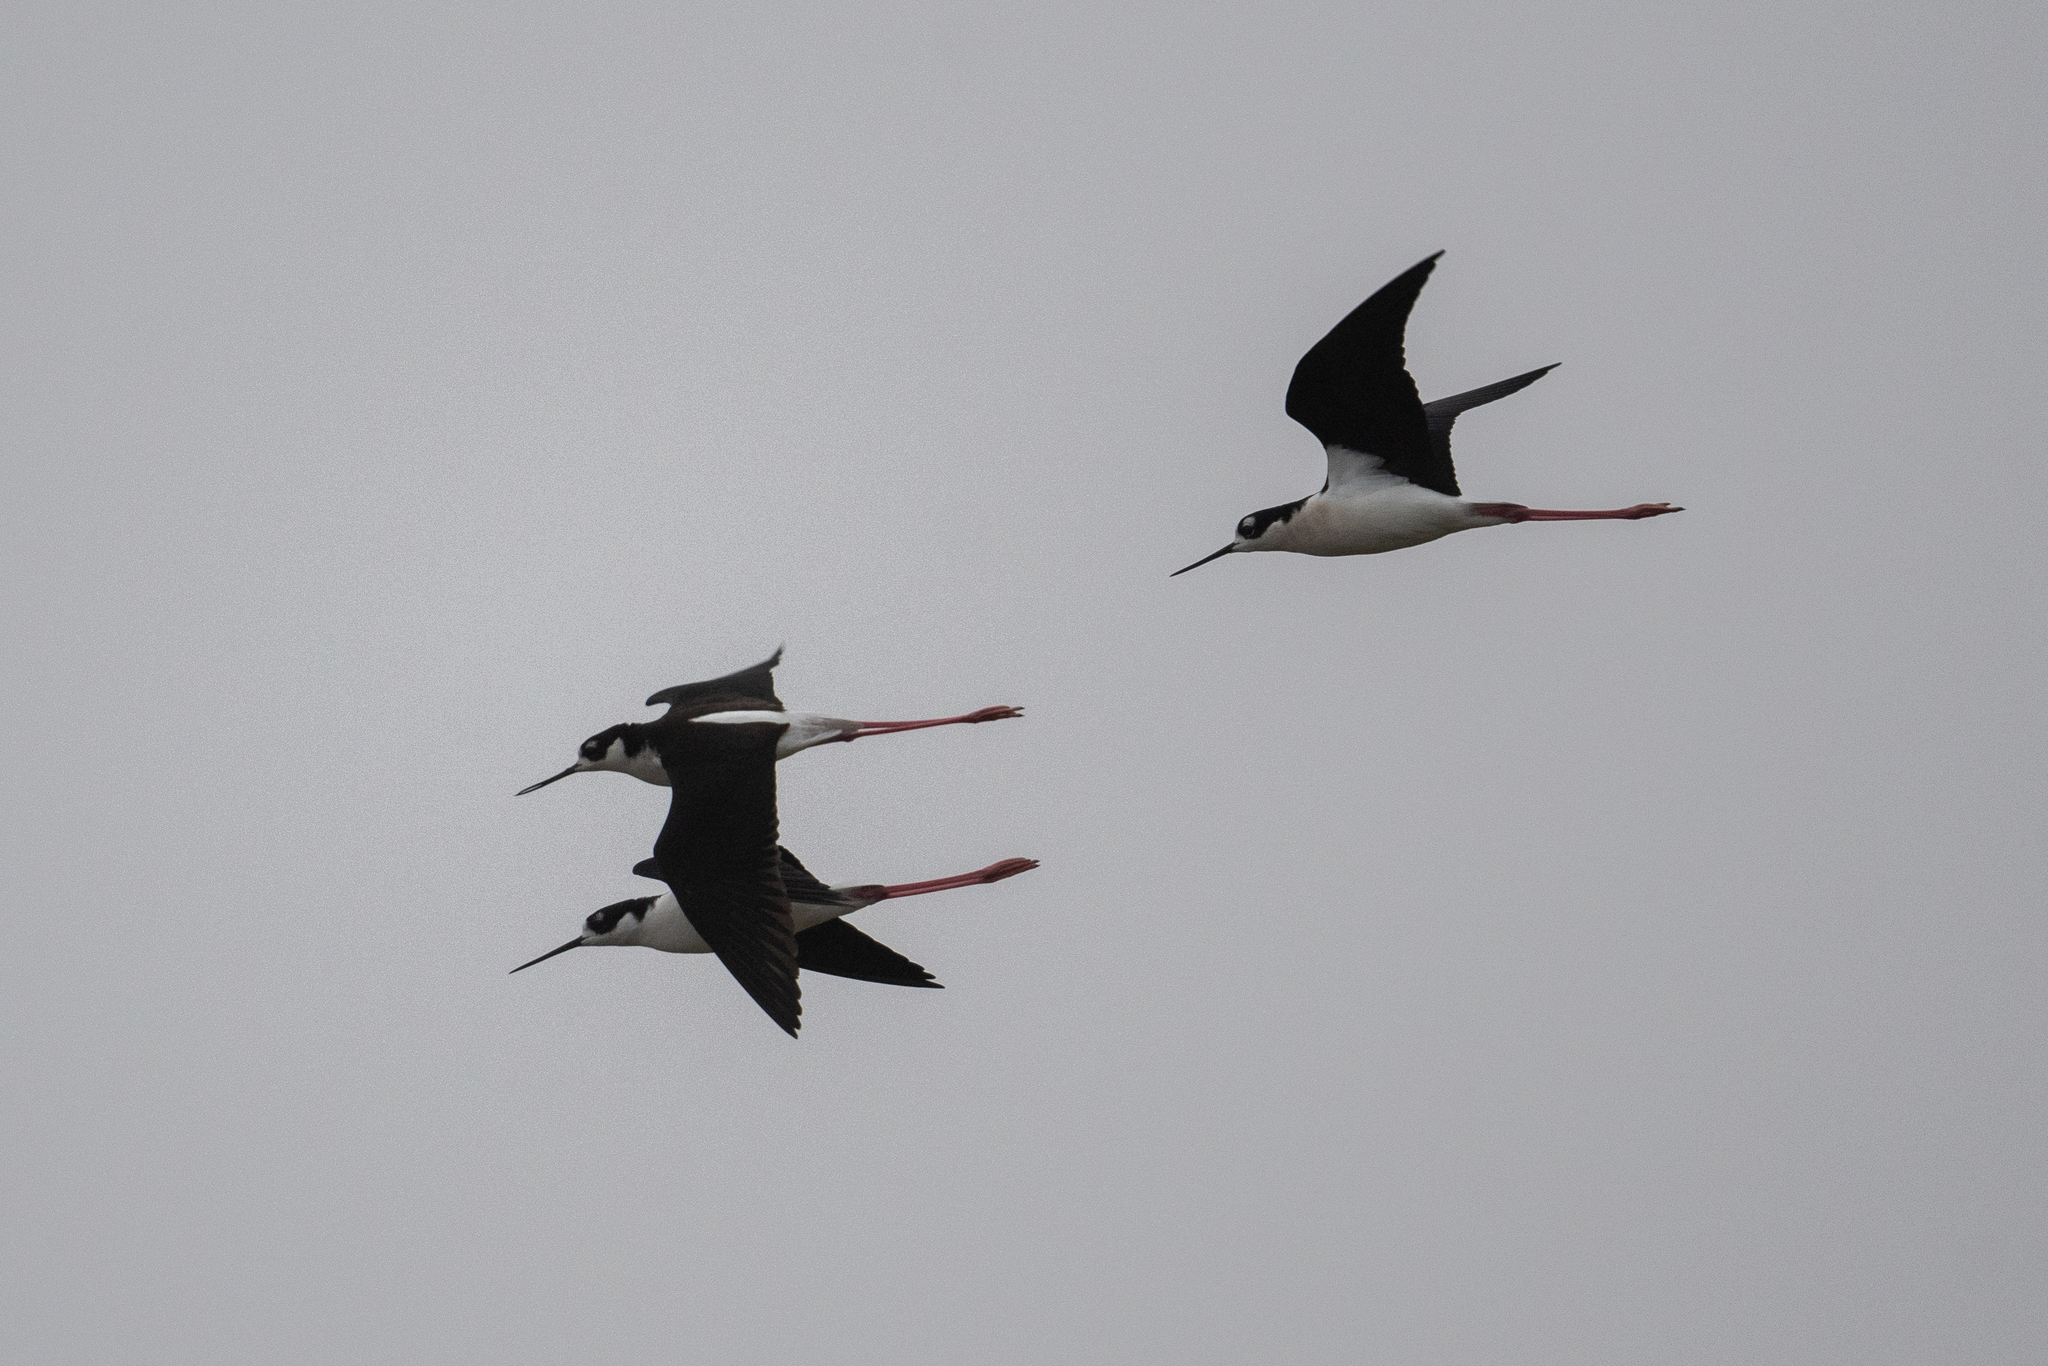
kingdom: Animalia
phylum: Chordata
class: Aves
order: Charadriiformes
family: Recurvirostridae
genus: Himantopus
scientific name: Himantopus mexicanus
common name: Black-necked stilt
